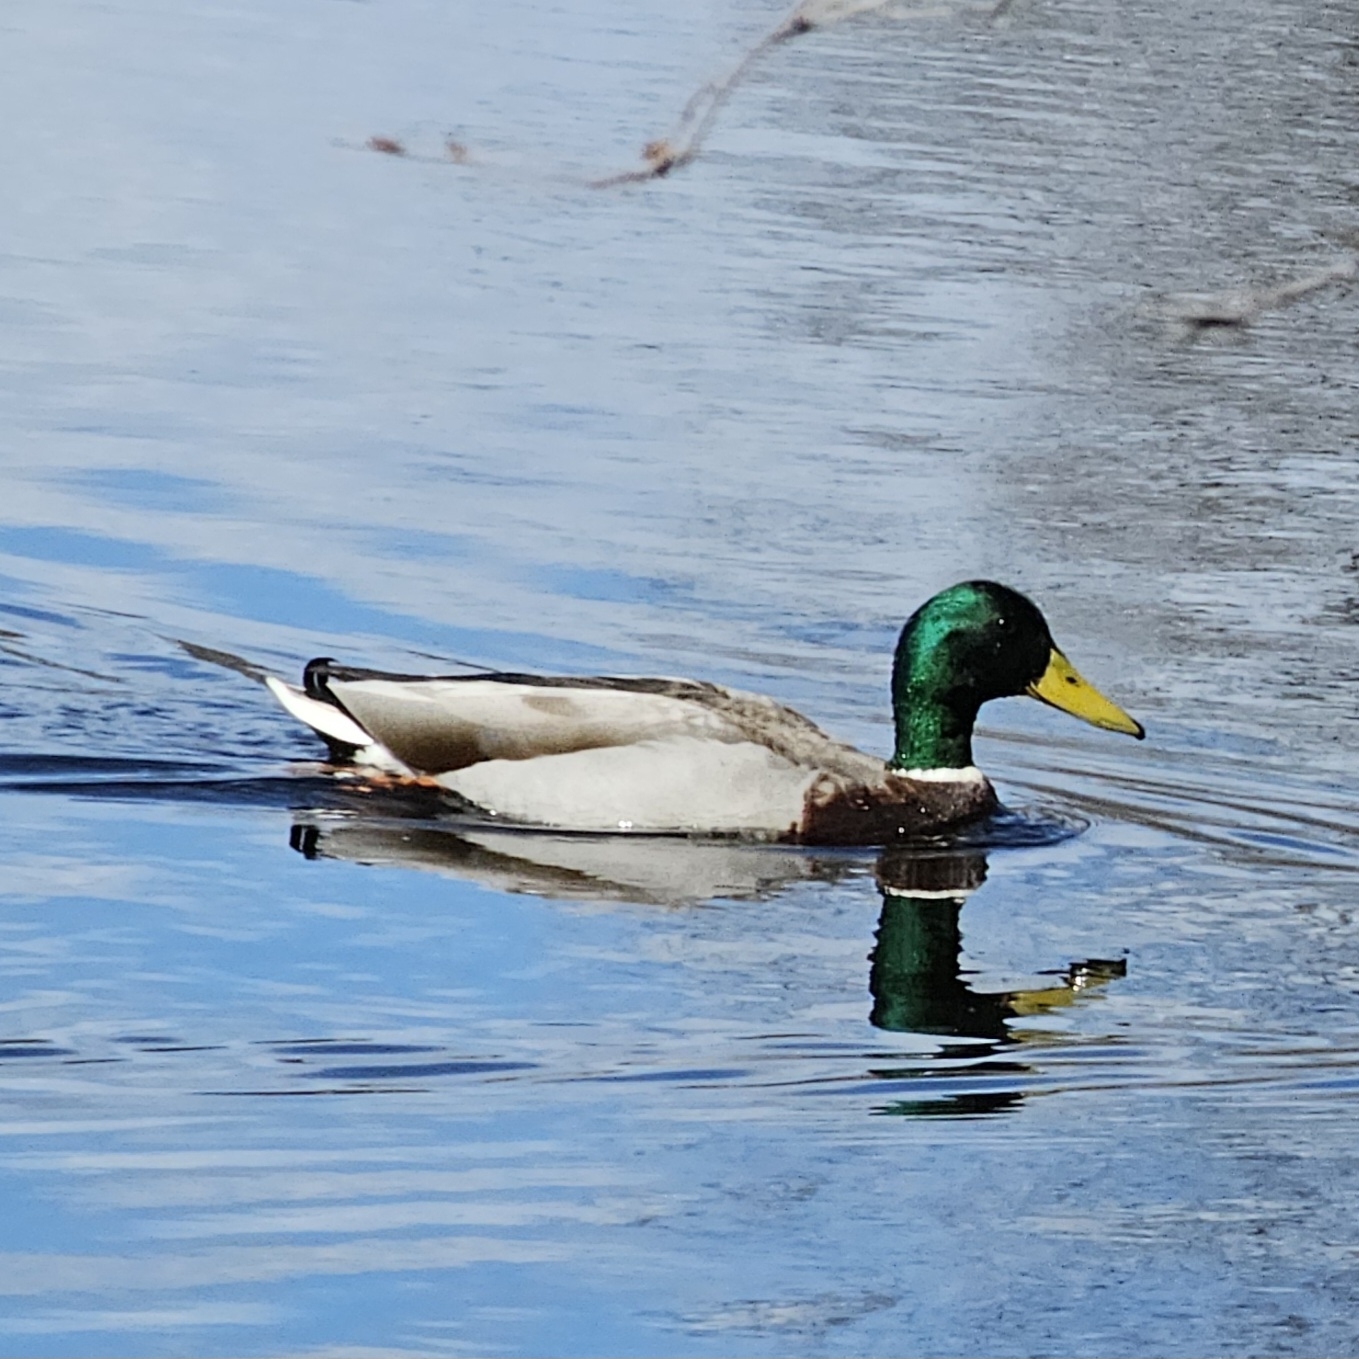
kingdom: Animalia
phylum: Chordata
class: Aves
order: Anseriformes
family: Anatidae
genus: Anas
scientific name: Anas platyrhynchos
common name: Mallard
